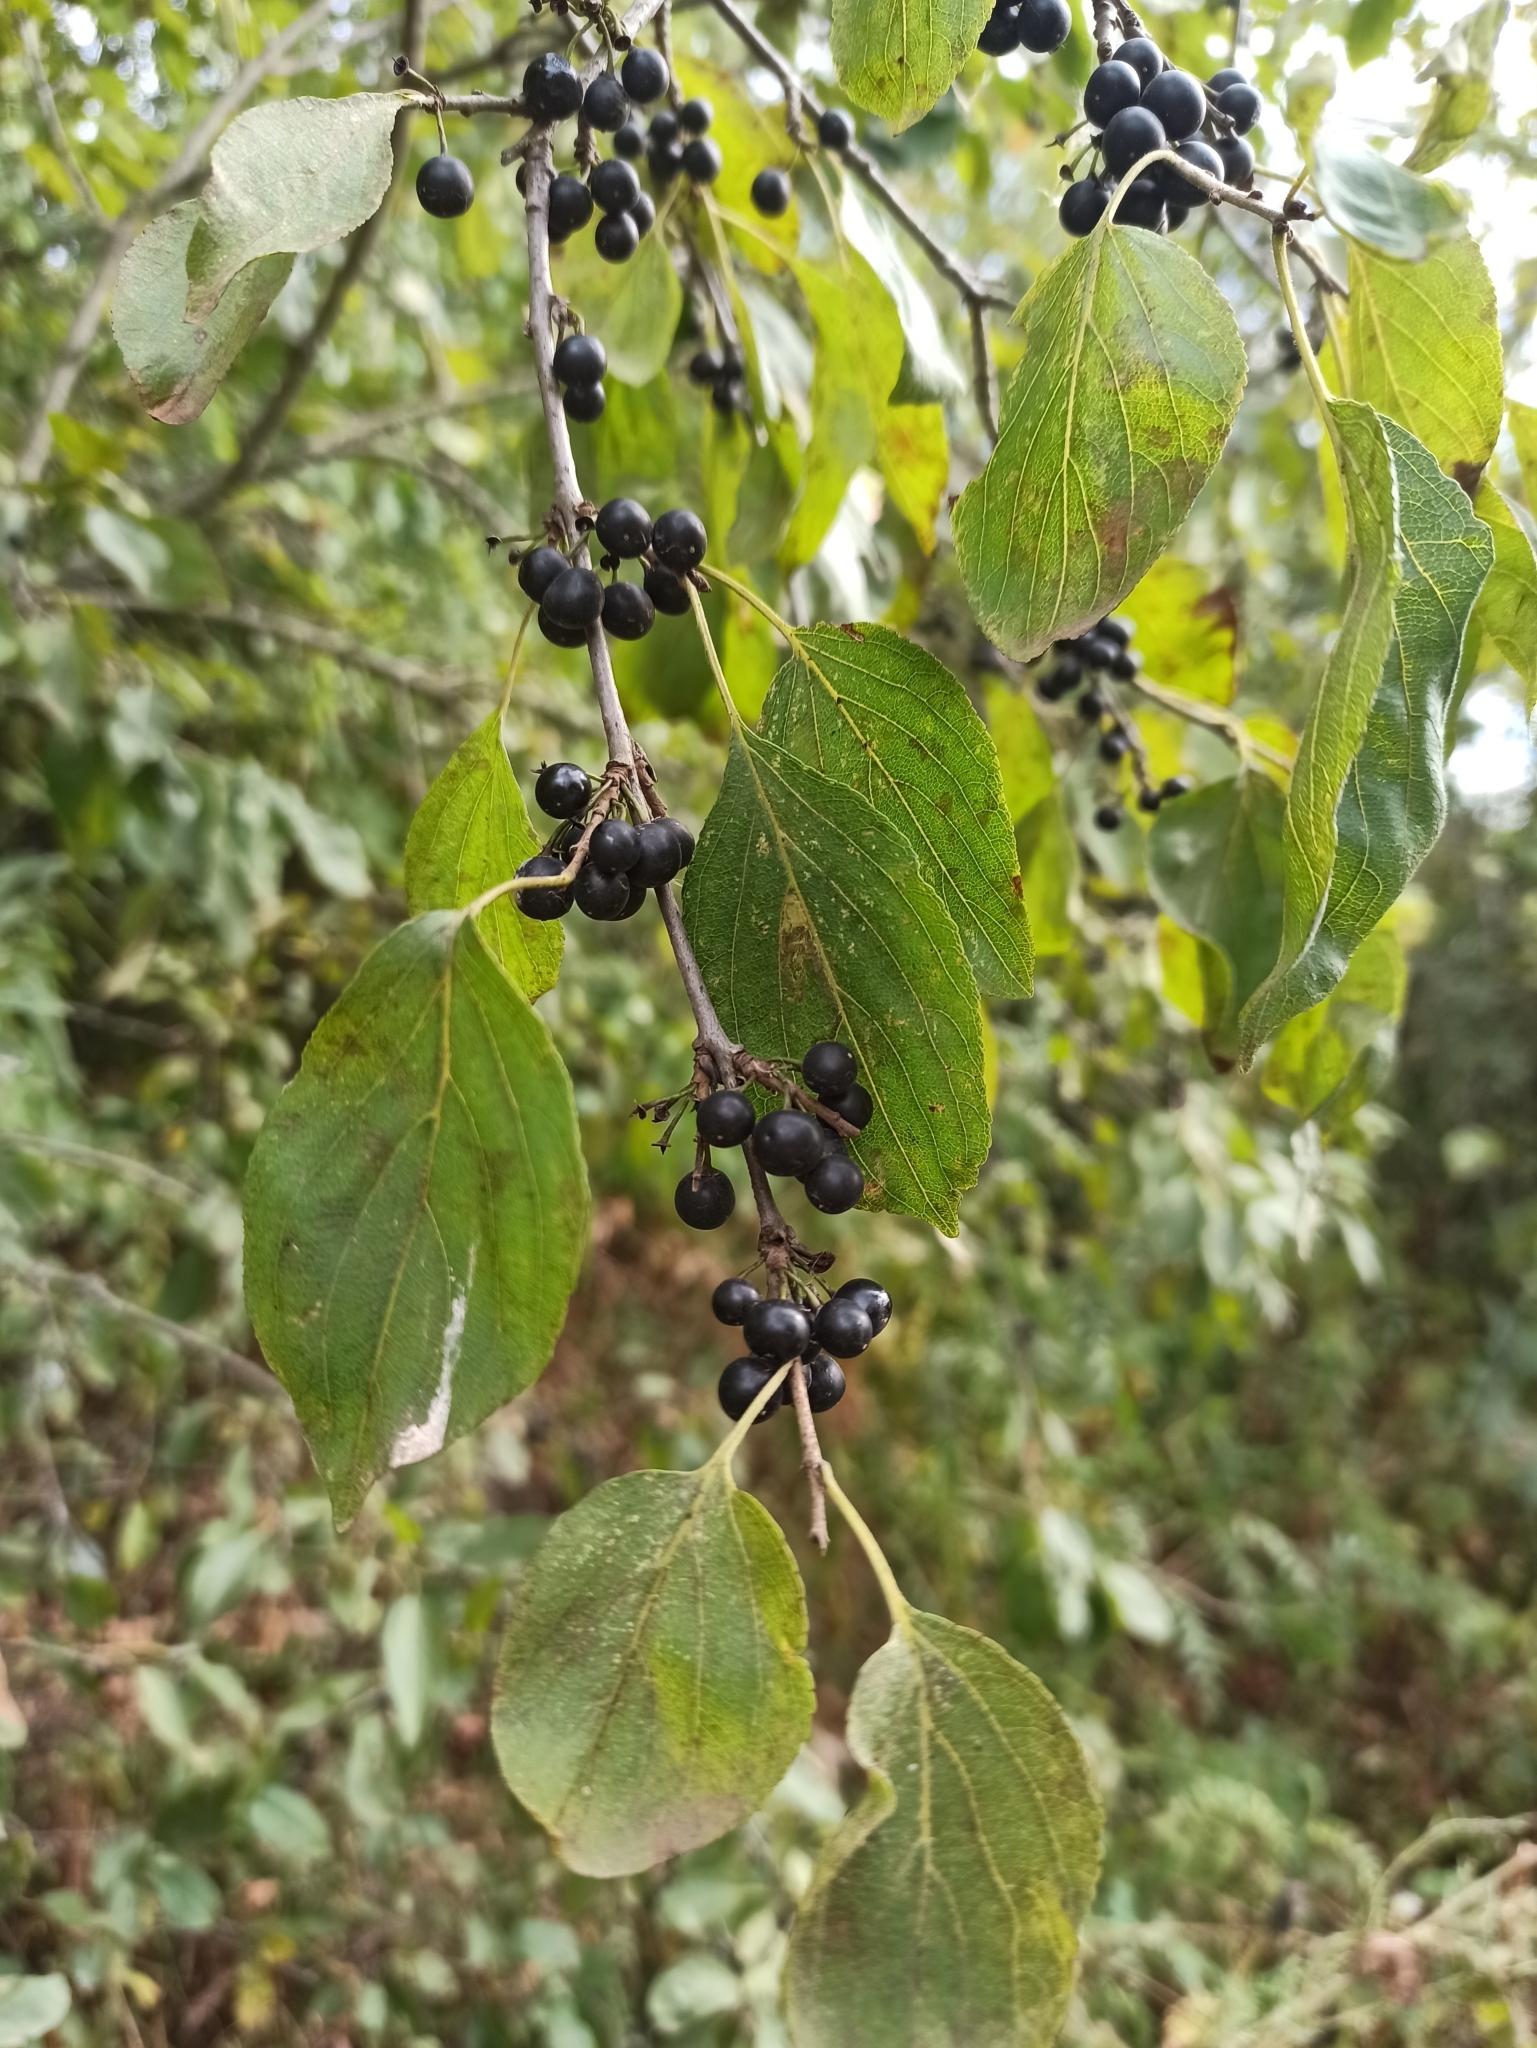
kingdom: Plantae
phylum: Tracheophyta
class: Magnoliopsida
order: Rosales
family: Rhamnaceae
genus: Rhamnus
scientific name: Rhamnus cathartica
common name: Common buckthorn
